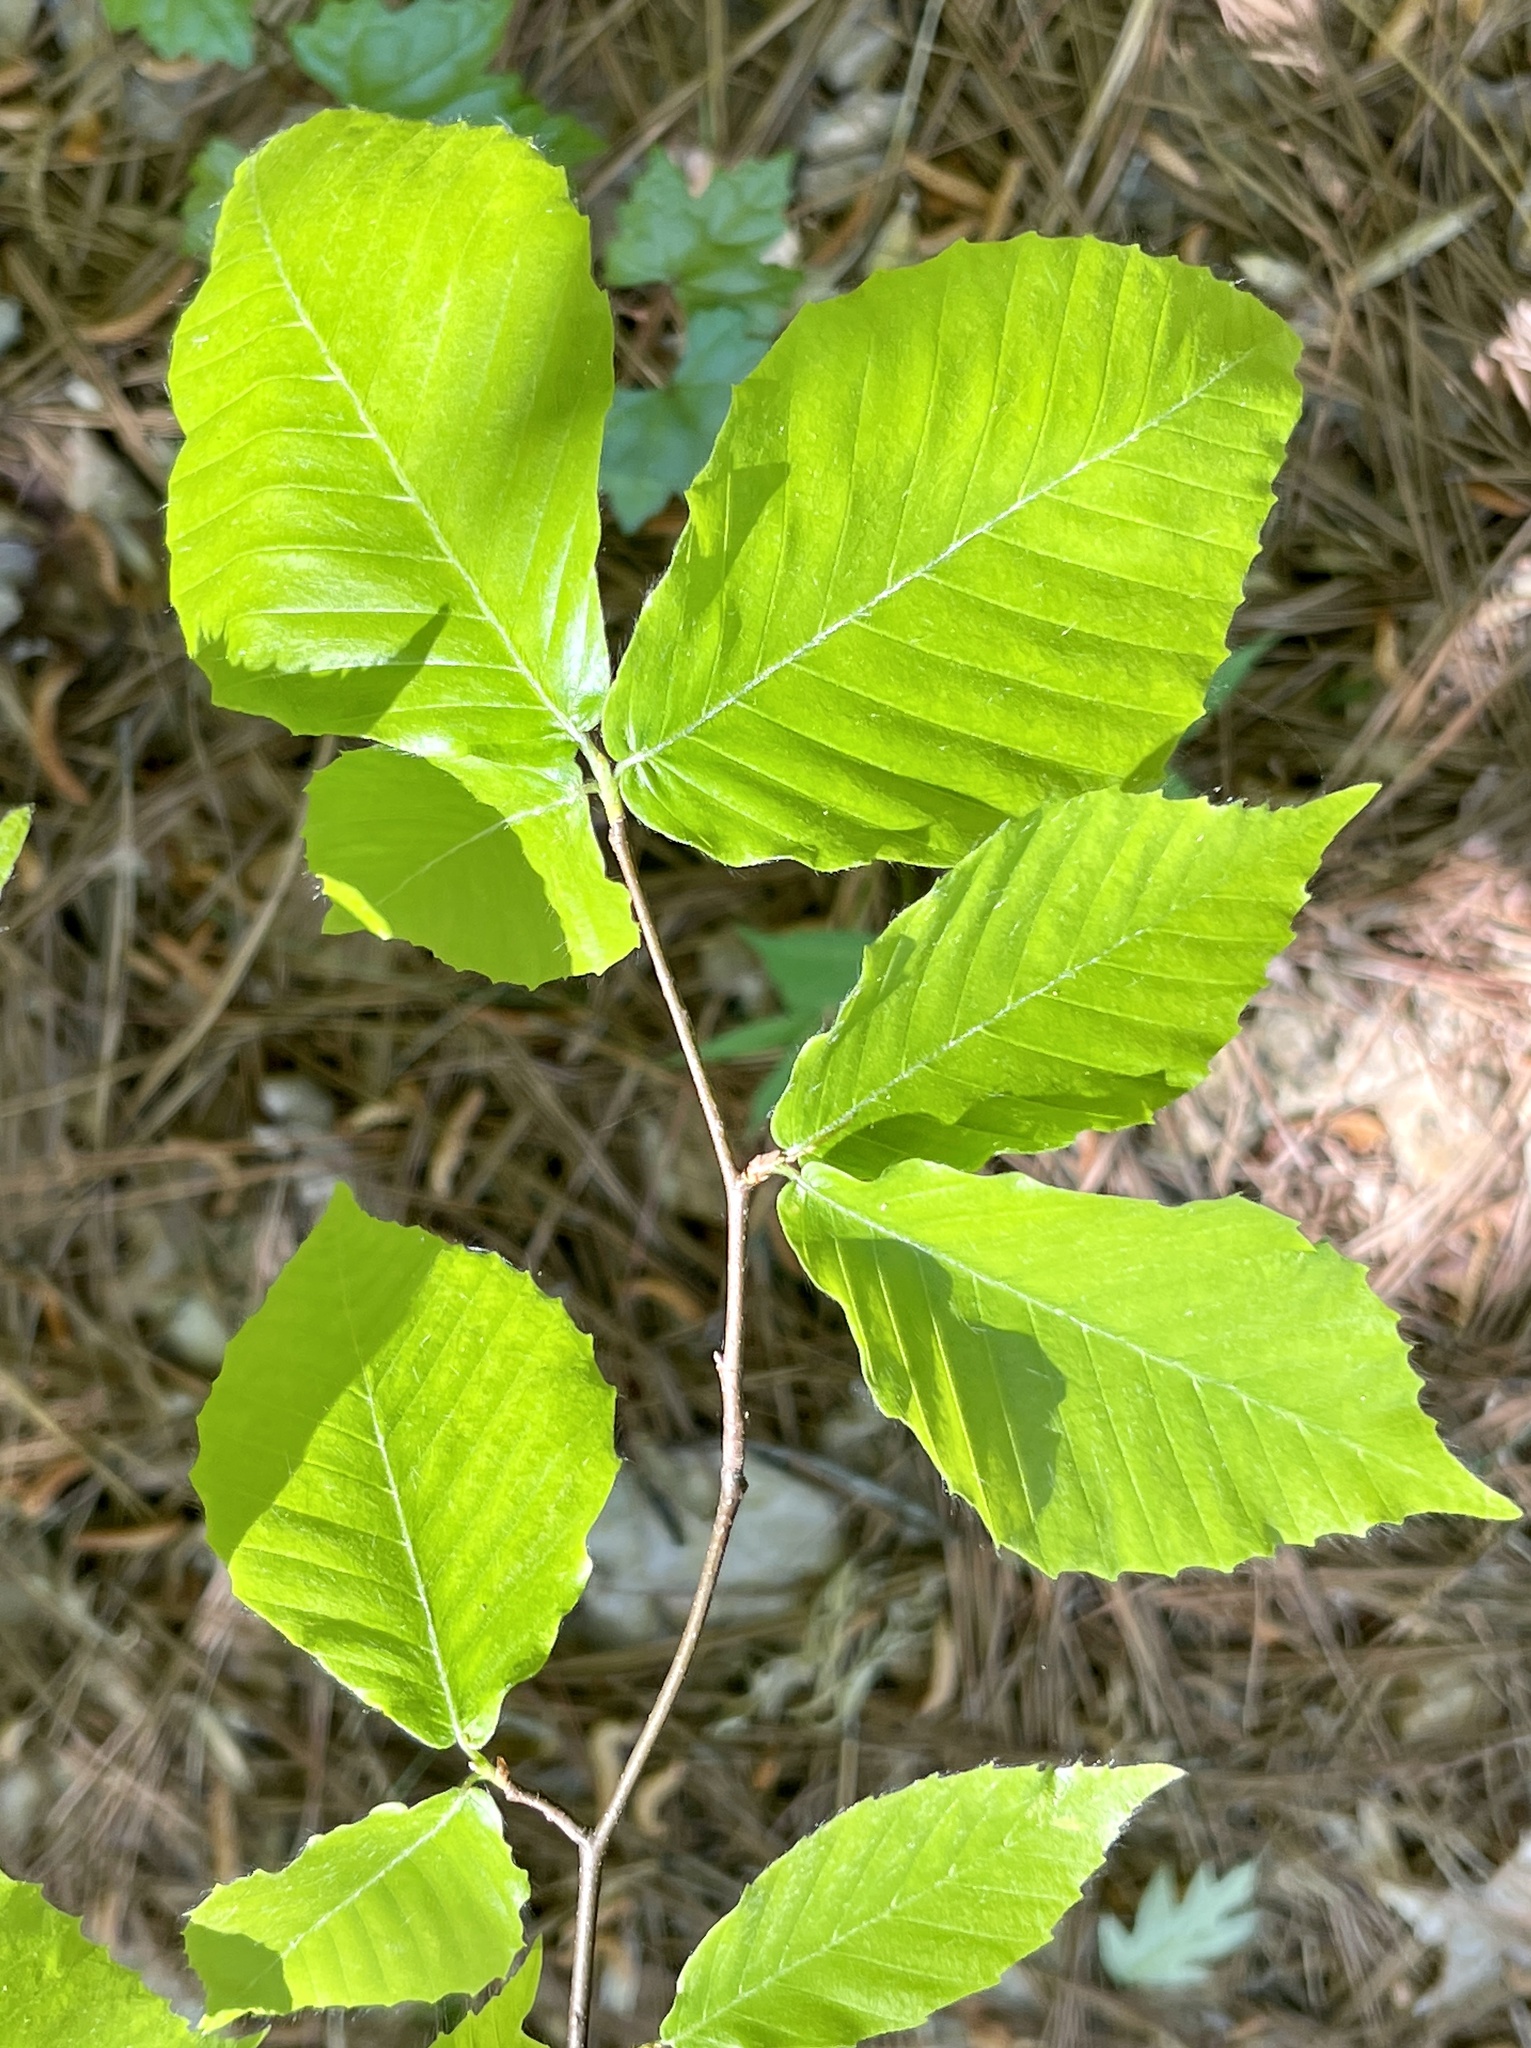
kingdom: Plantae
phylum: Tracheophyta
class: Magnoliopsida
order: Fagales
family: Fagaceae
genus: Fagus
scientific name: Fagus grandifolia
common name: American beech
